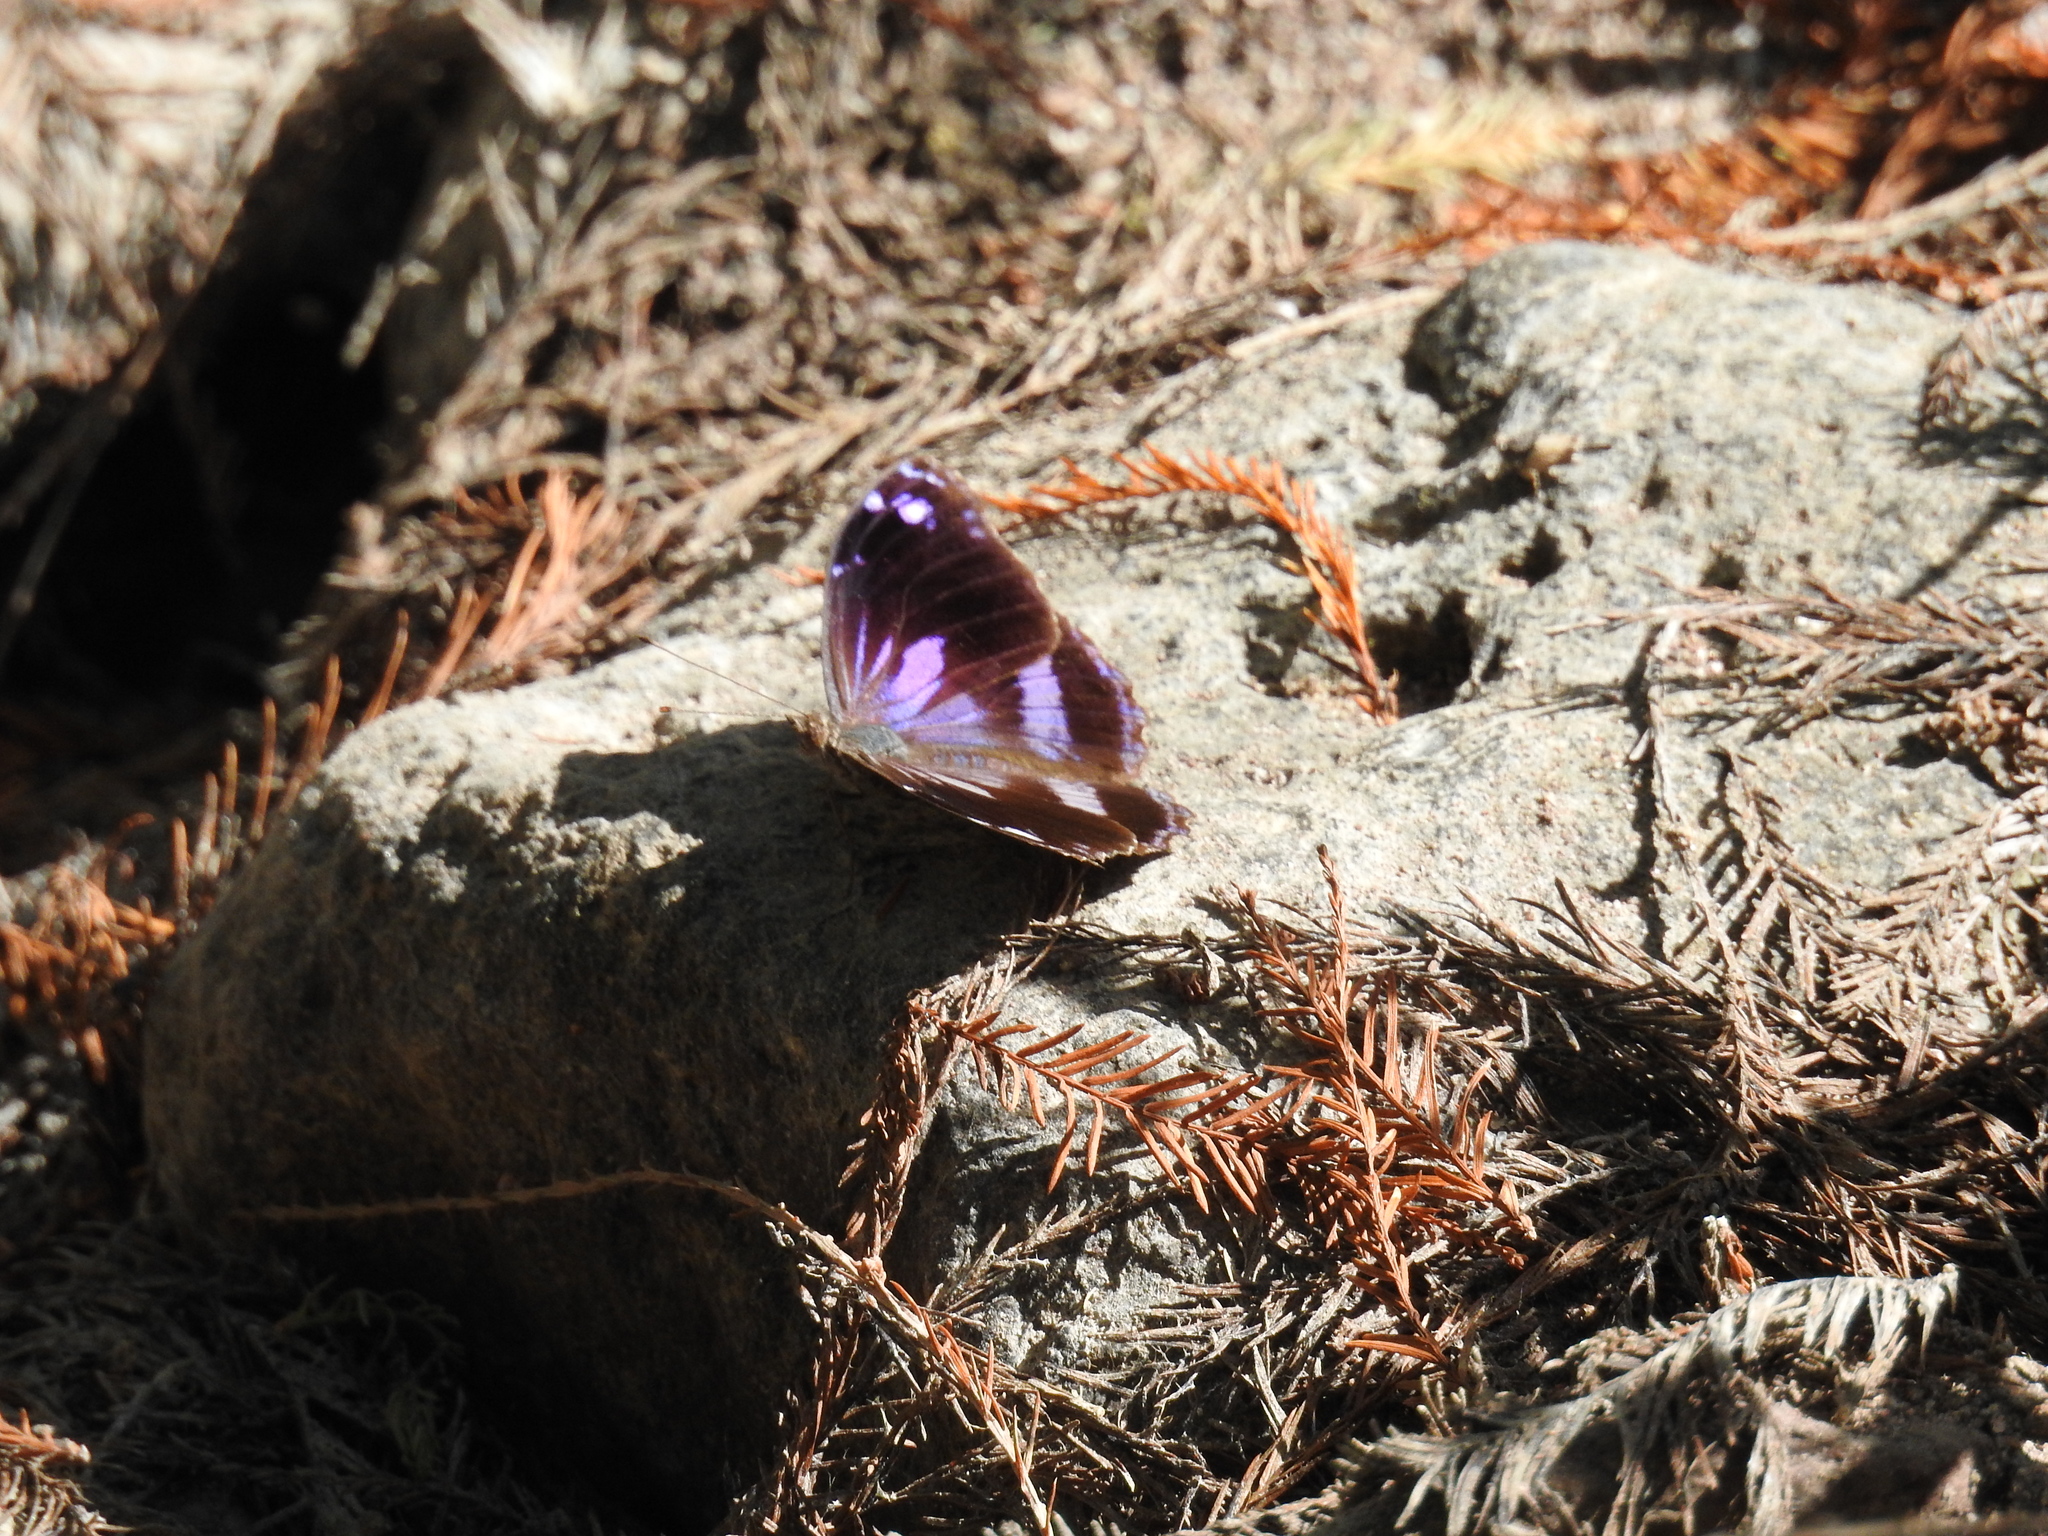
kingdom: Animalia
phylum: Arthropoda
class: Insecta
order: Lepidoptera
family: Nymphalidae
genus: Myscelia
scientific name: Myscelia cyananthe
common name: Blackened bluewing
